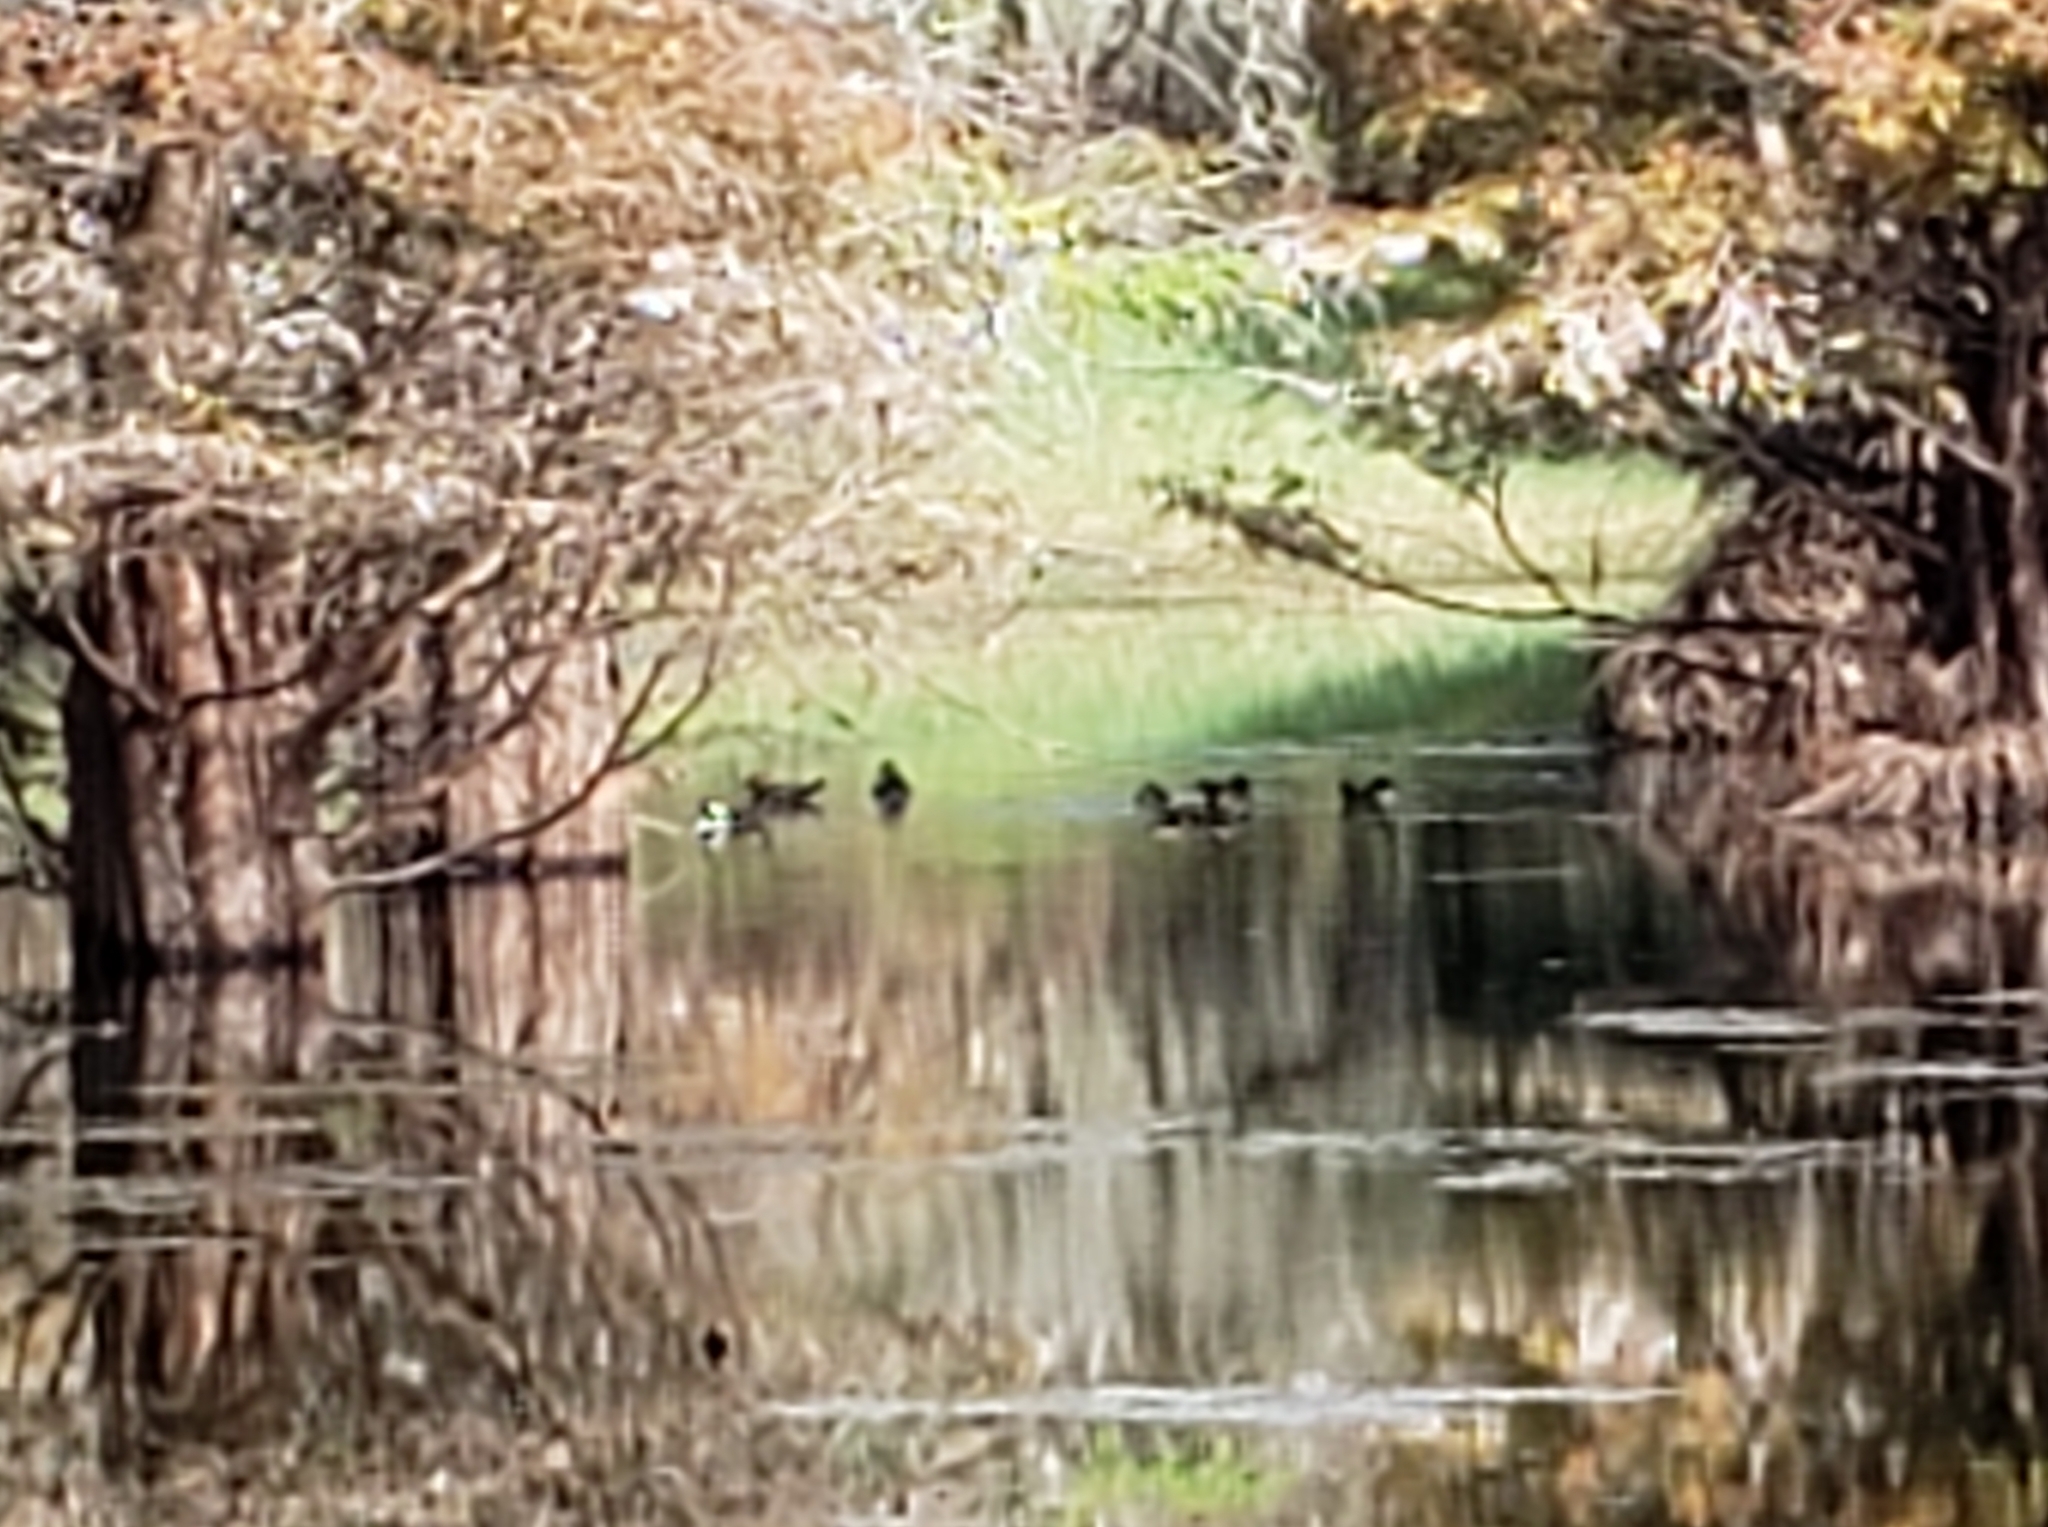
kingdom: Animalia
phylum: Chordata
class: Aves
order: Anseriformes
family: Anatidae
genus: Lophodytes
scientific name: Lophodytes cucullatus
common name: Hooded merganser
